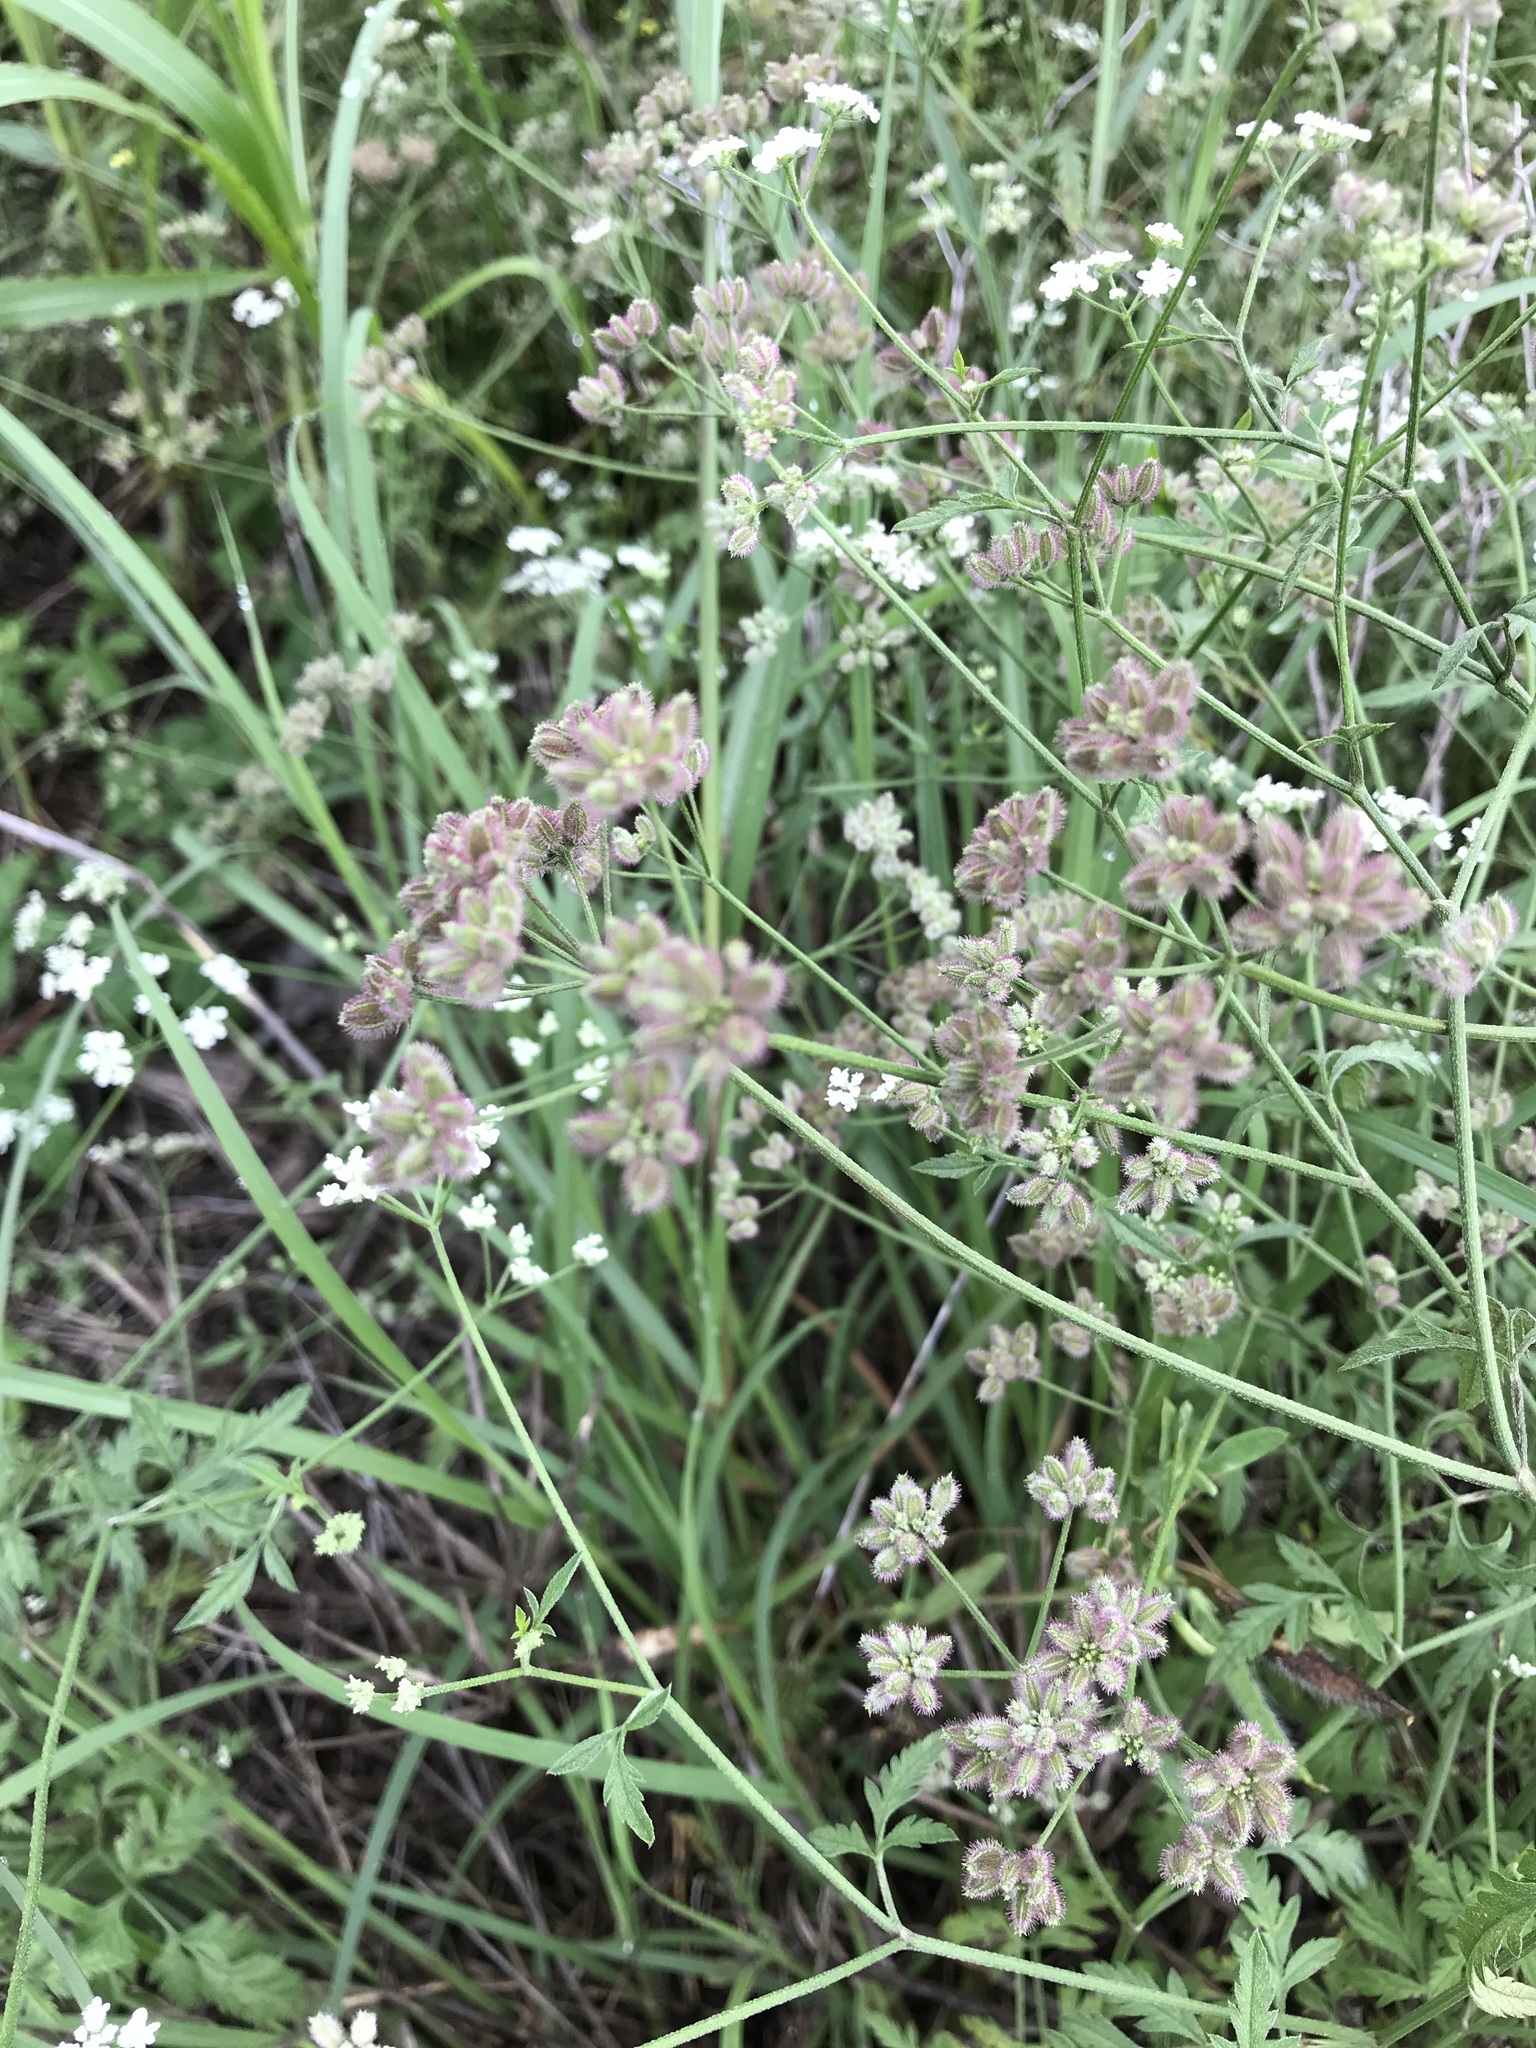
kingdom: Plantae
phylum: Tracheophyta
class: Magnoliopsida
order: Apiales
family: Apiaceae
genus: Torilis
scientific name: Torilis arvensis
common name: Spreading hedge-parsley
